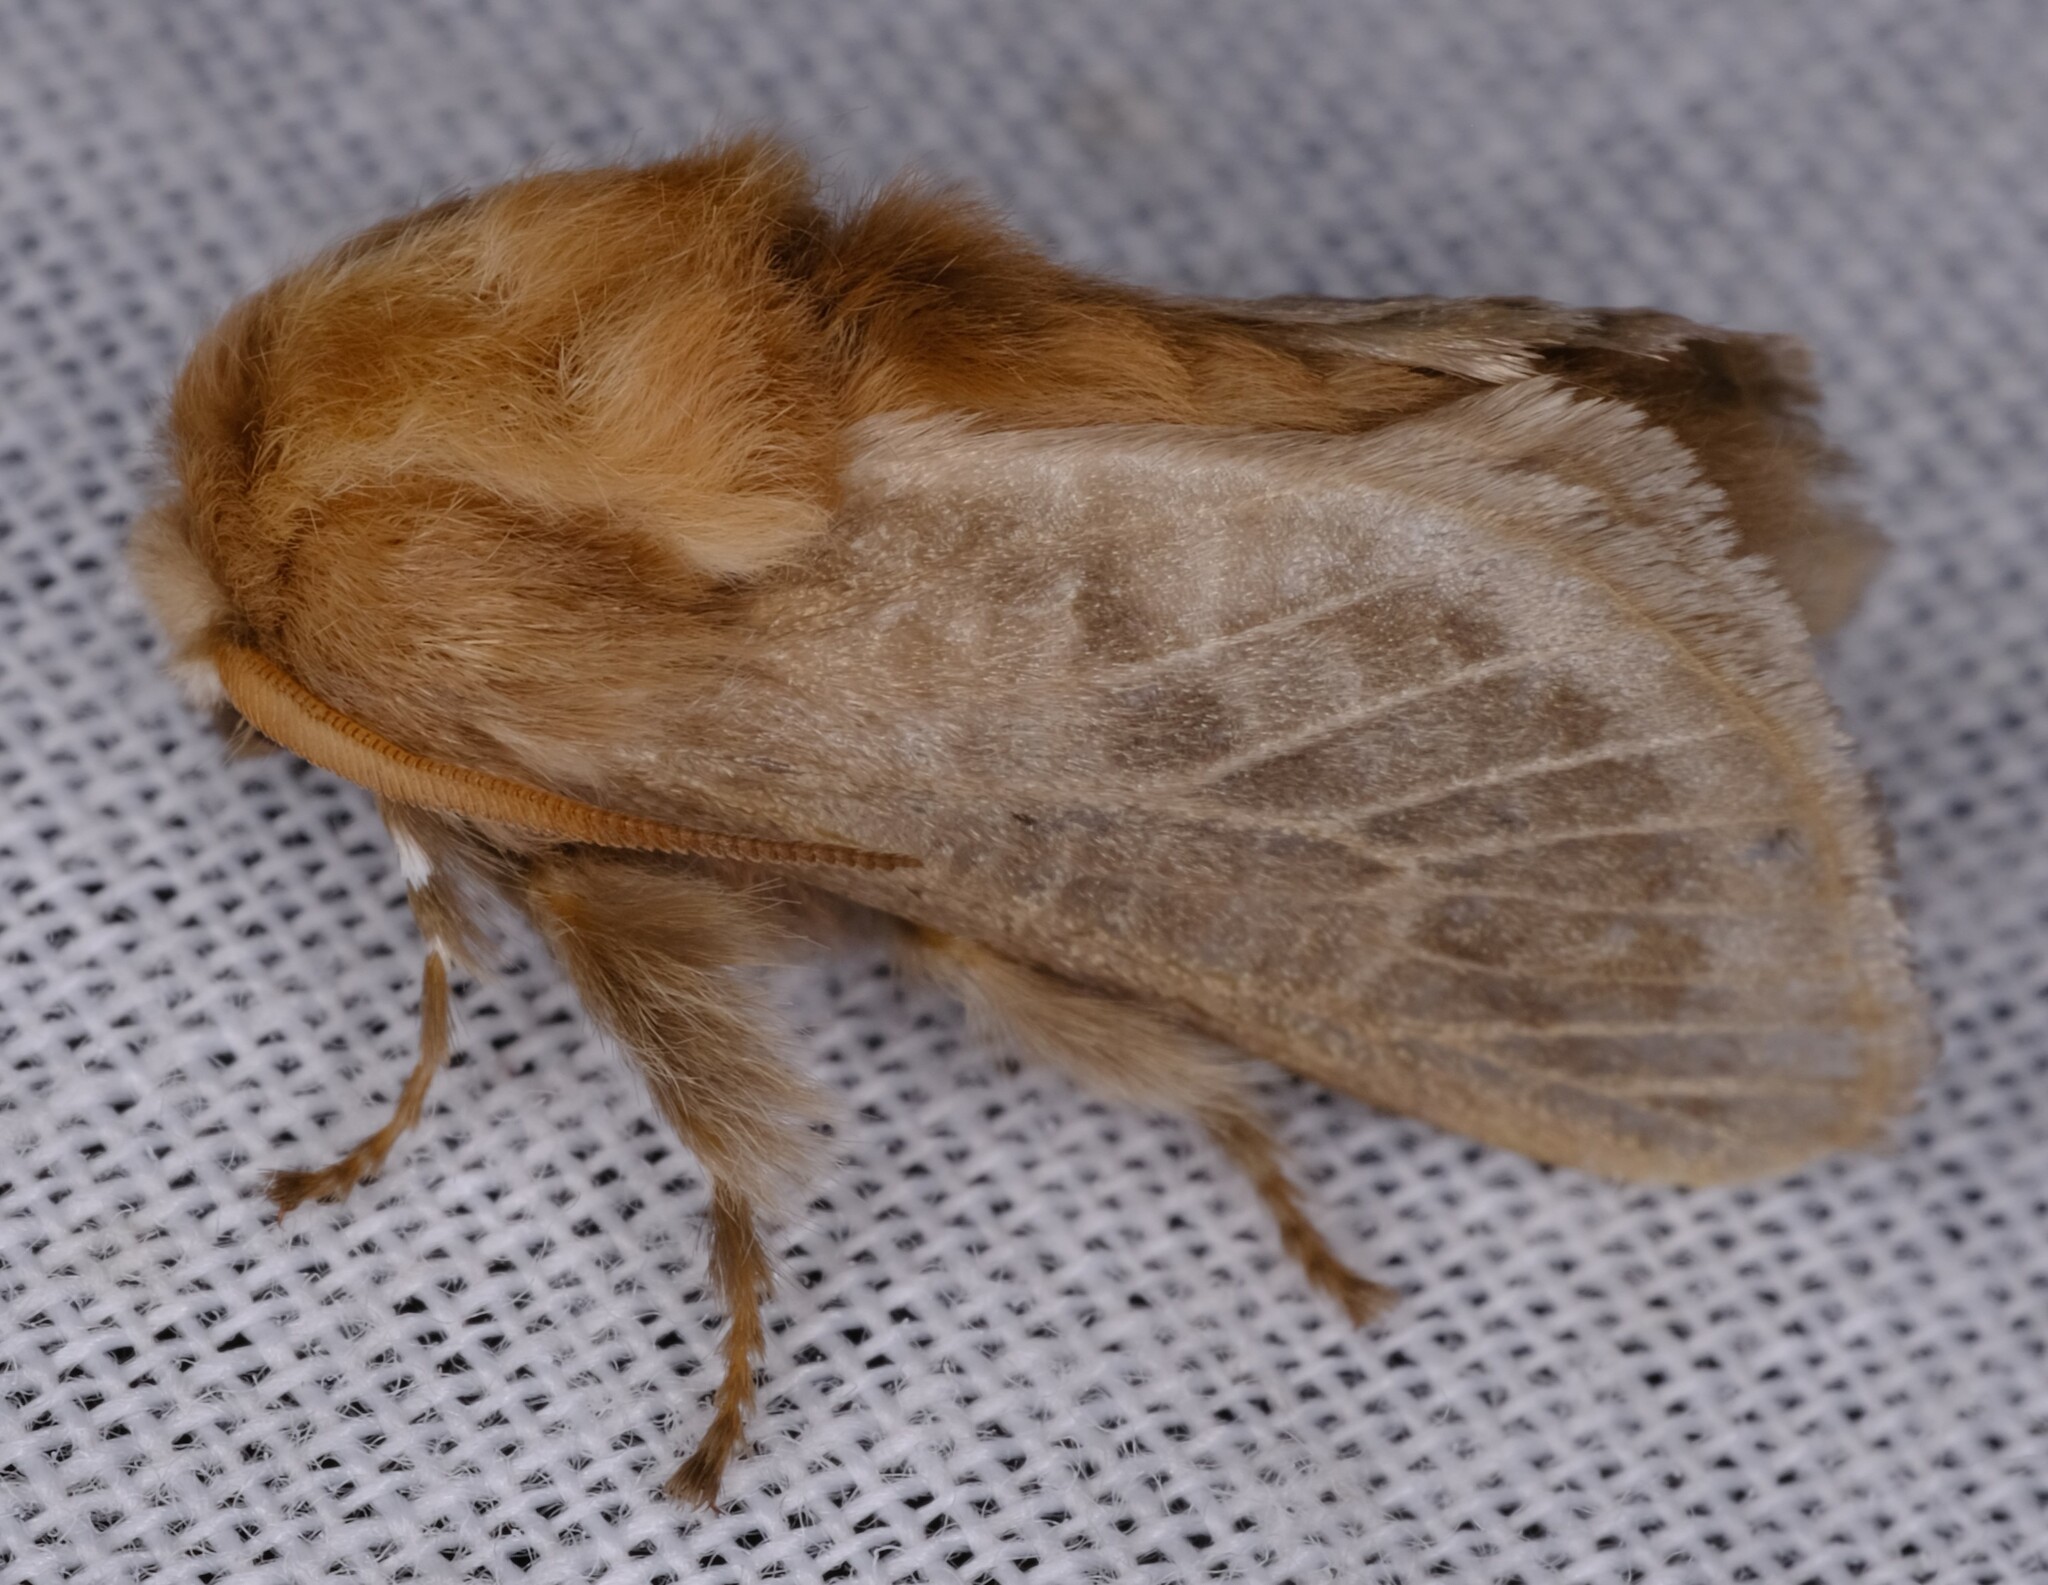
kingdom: Animalia
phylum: Arthropoda
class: Insecta
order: Lepidoptera
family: Limacodidae
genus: Doratifera
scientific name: Doratifera pinguis
